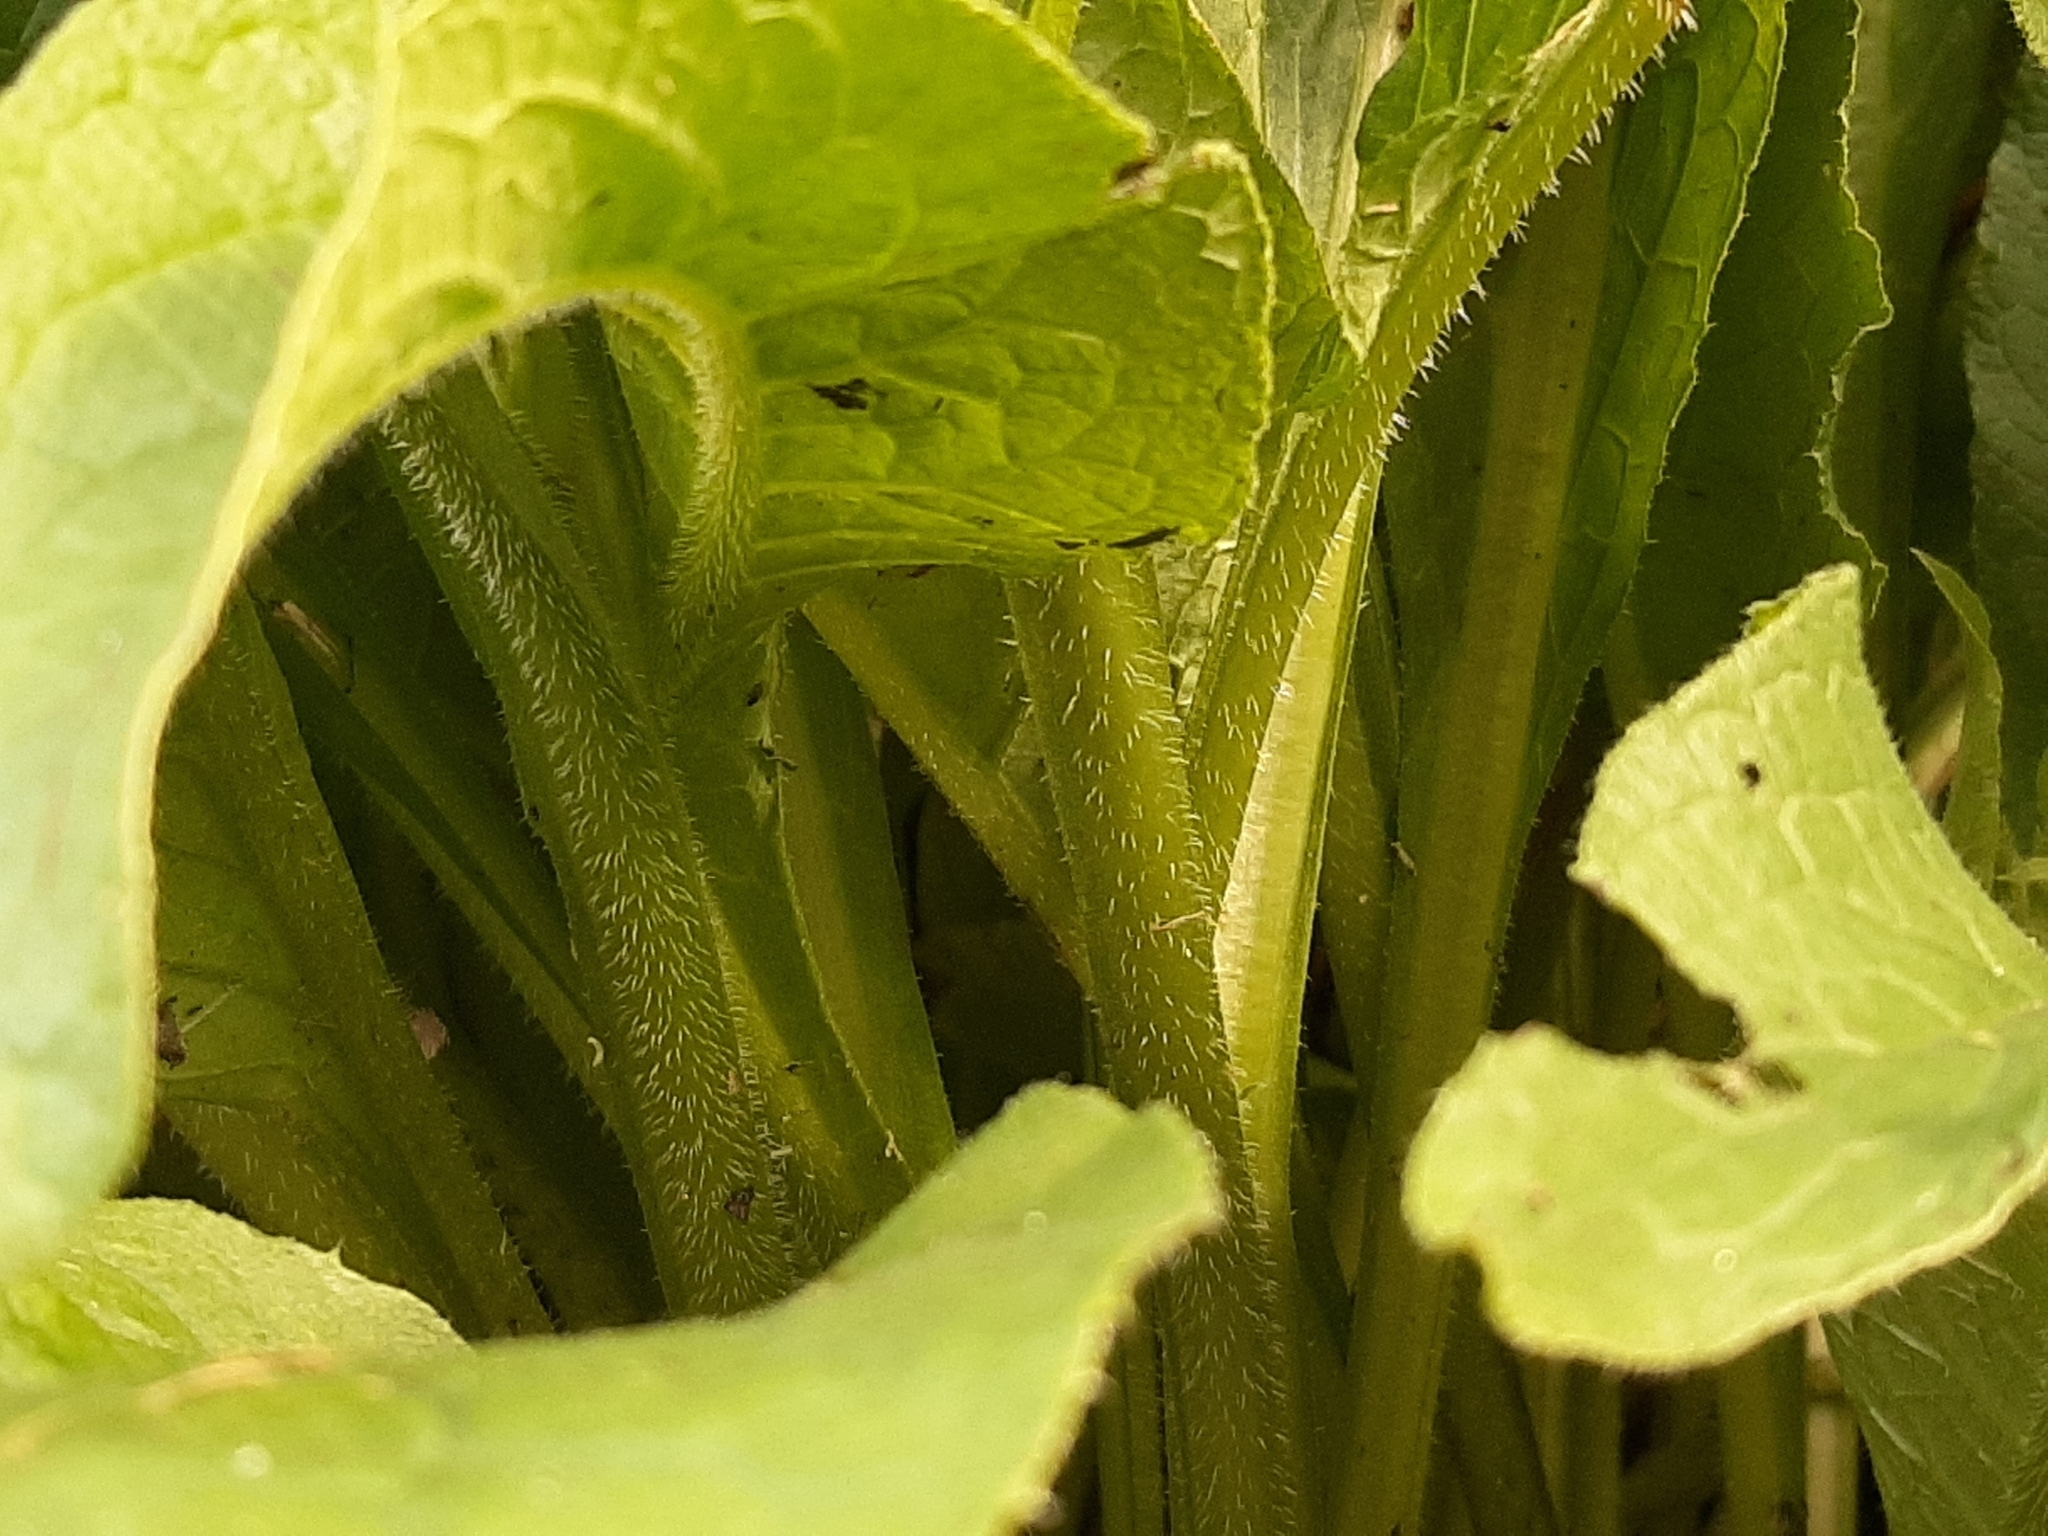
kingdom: Plantae
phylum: Tracheophyta
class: Magnoliopsida
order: Boraginales
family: Boraginaceae
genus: Borago
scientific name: Borago officinalis
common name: Borage
